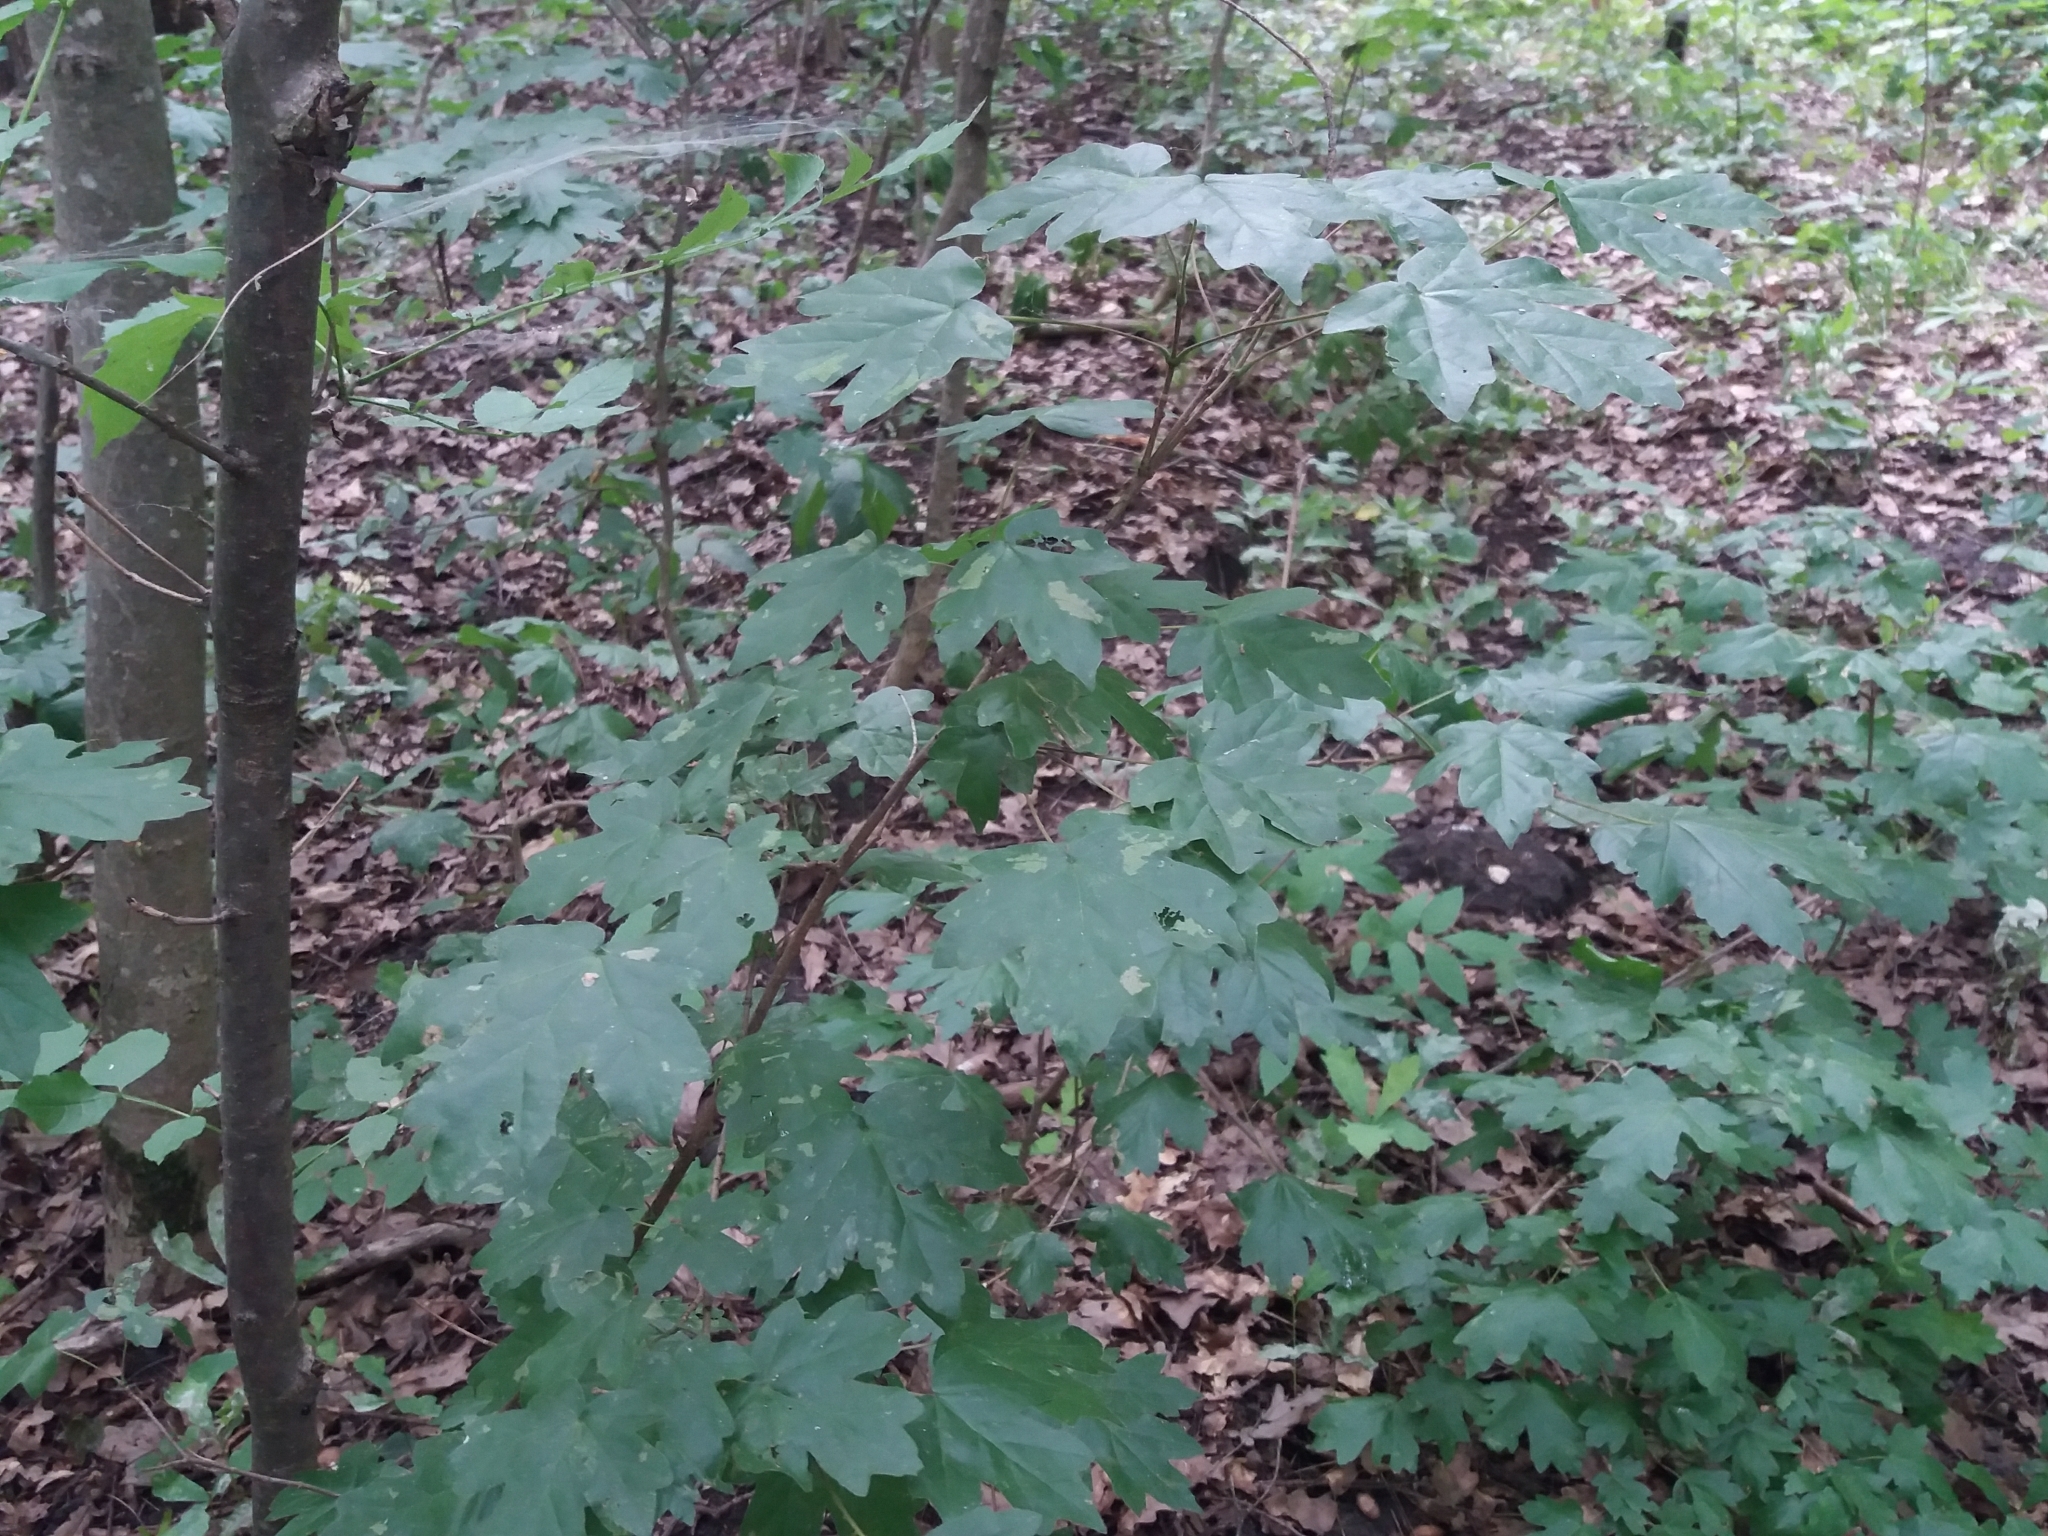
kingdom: Plantae
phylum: Tracheophyta
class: Magnoliopsida
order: Sapindales
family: Sapindaceae
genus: Acer
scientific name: Acer campestre
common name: Field maple
